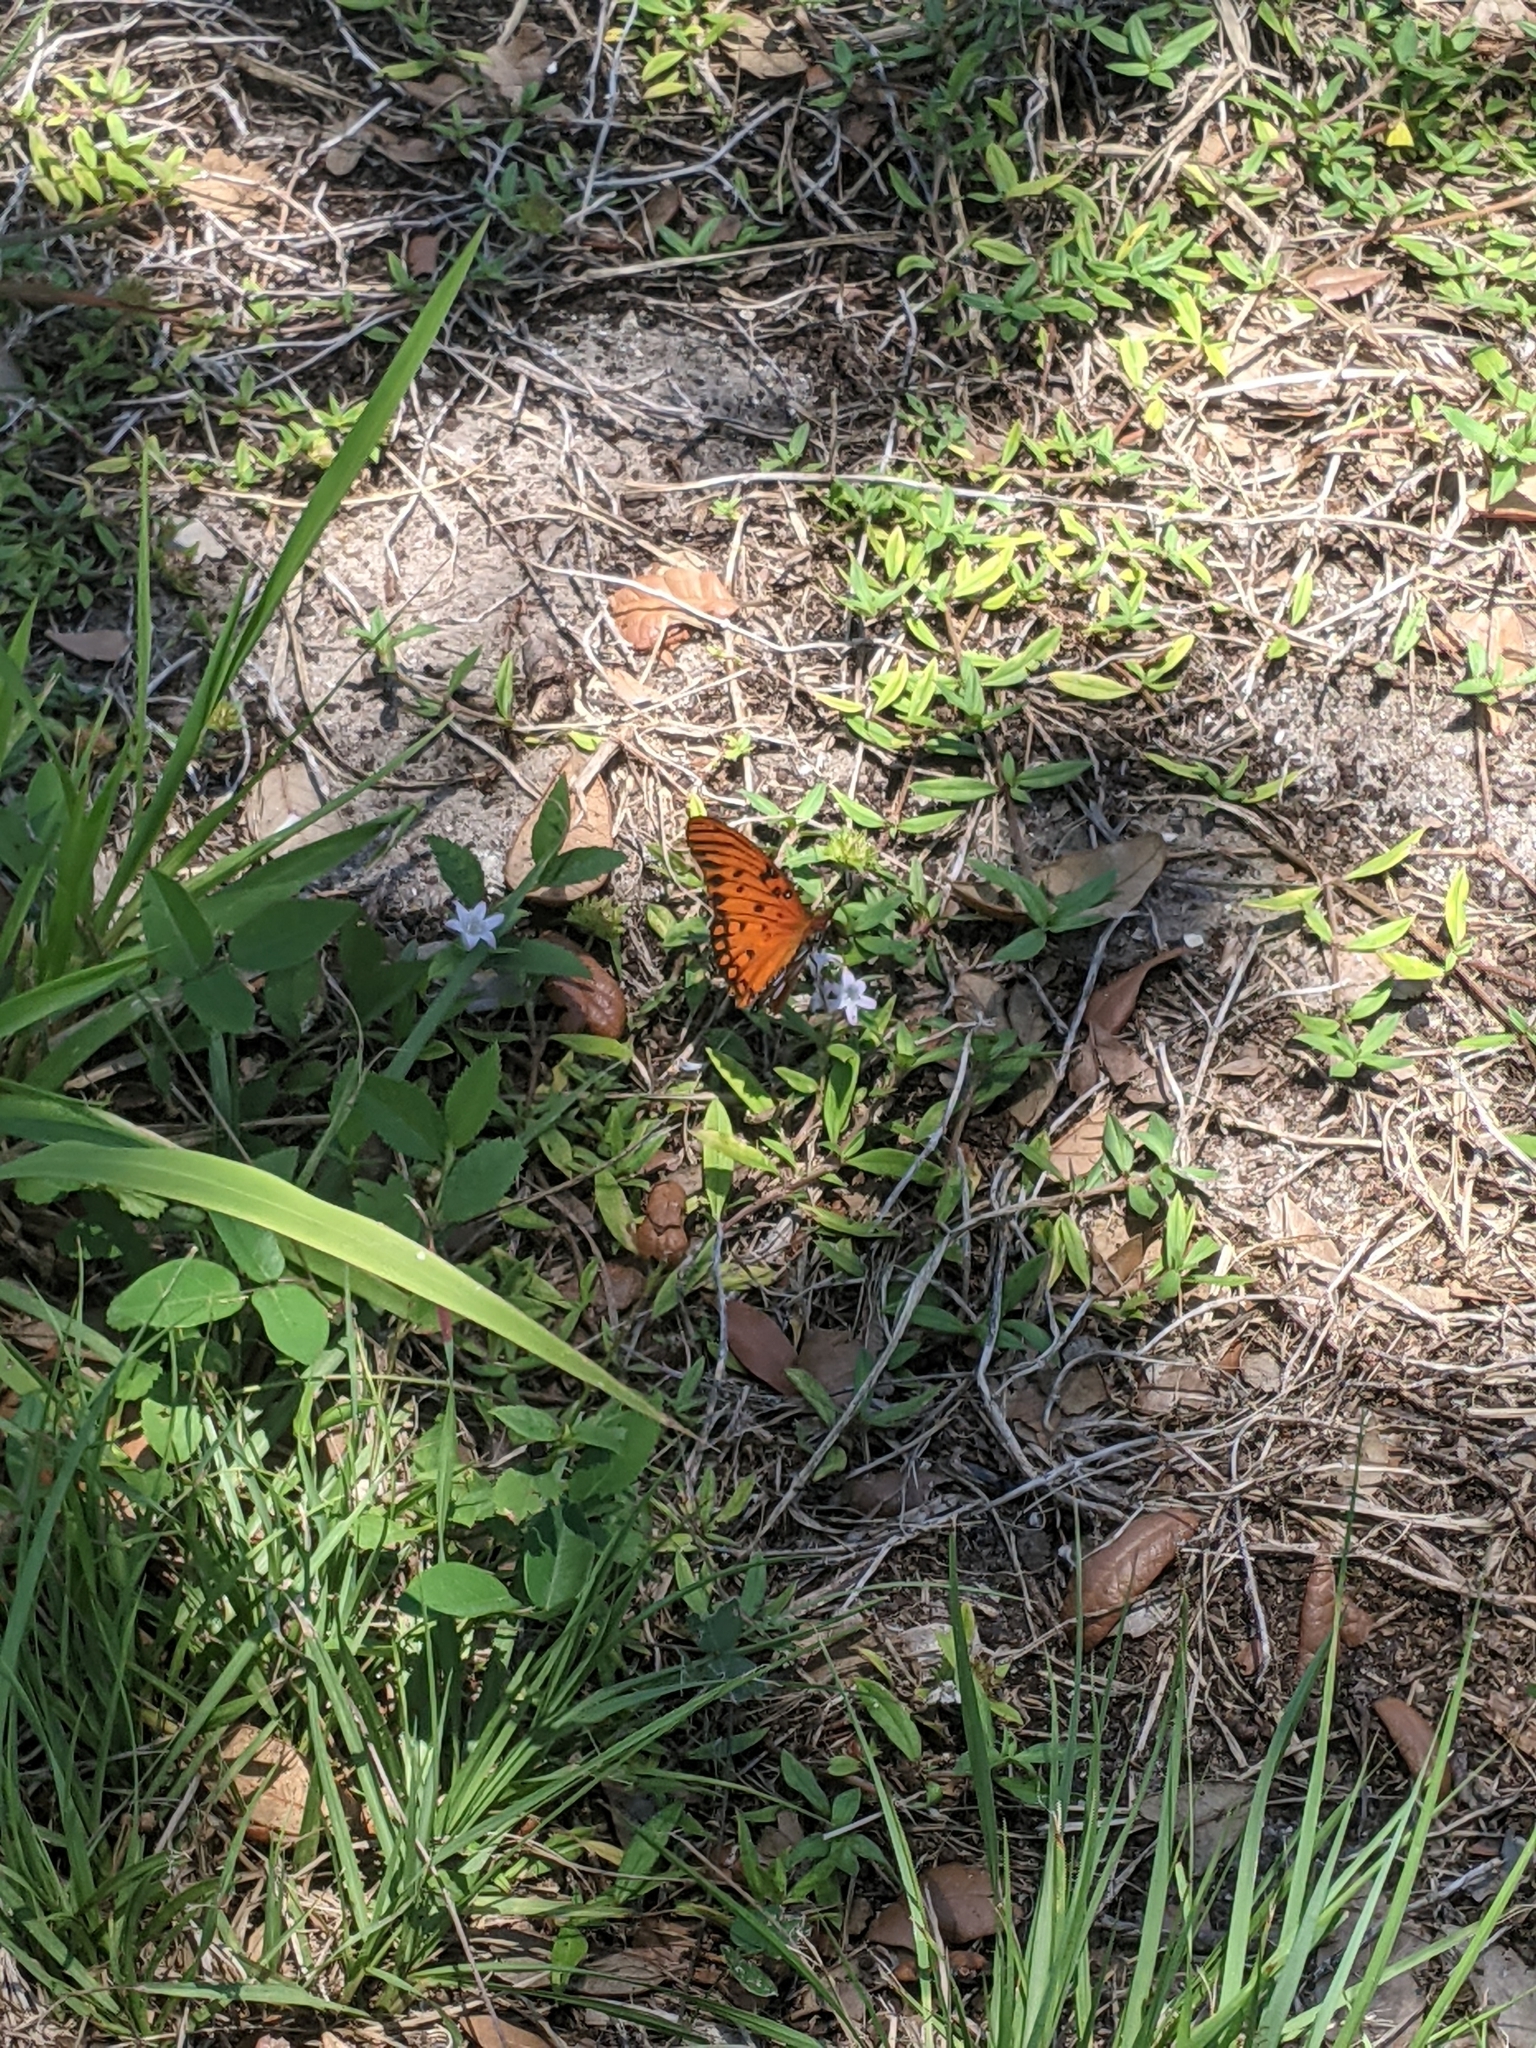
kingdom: Animalia
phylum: Arthropoda
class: Insecta
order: Lepidoptera
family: Nymphalidae
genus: Dione
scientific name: Dione vanillae
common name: Gulf fritillary
